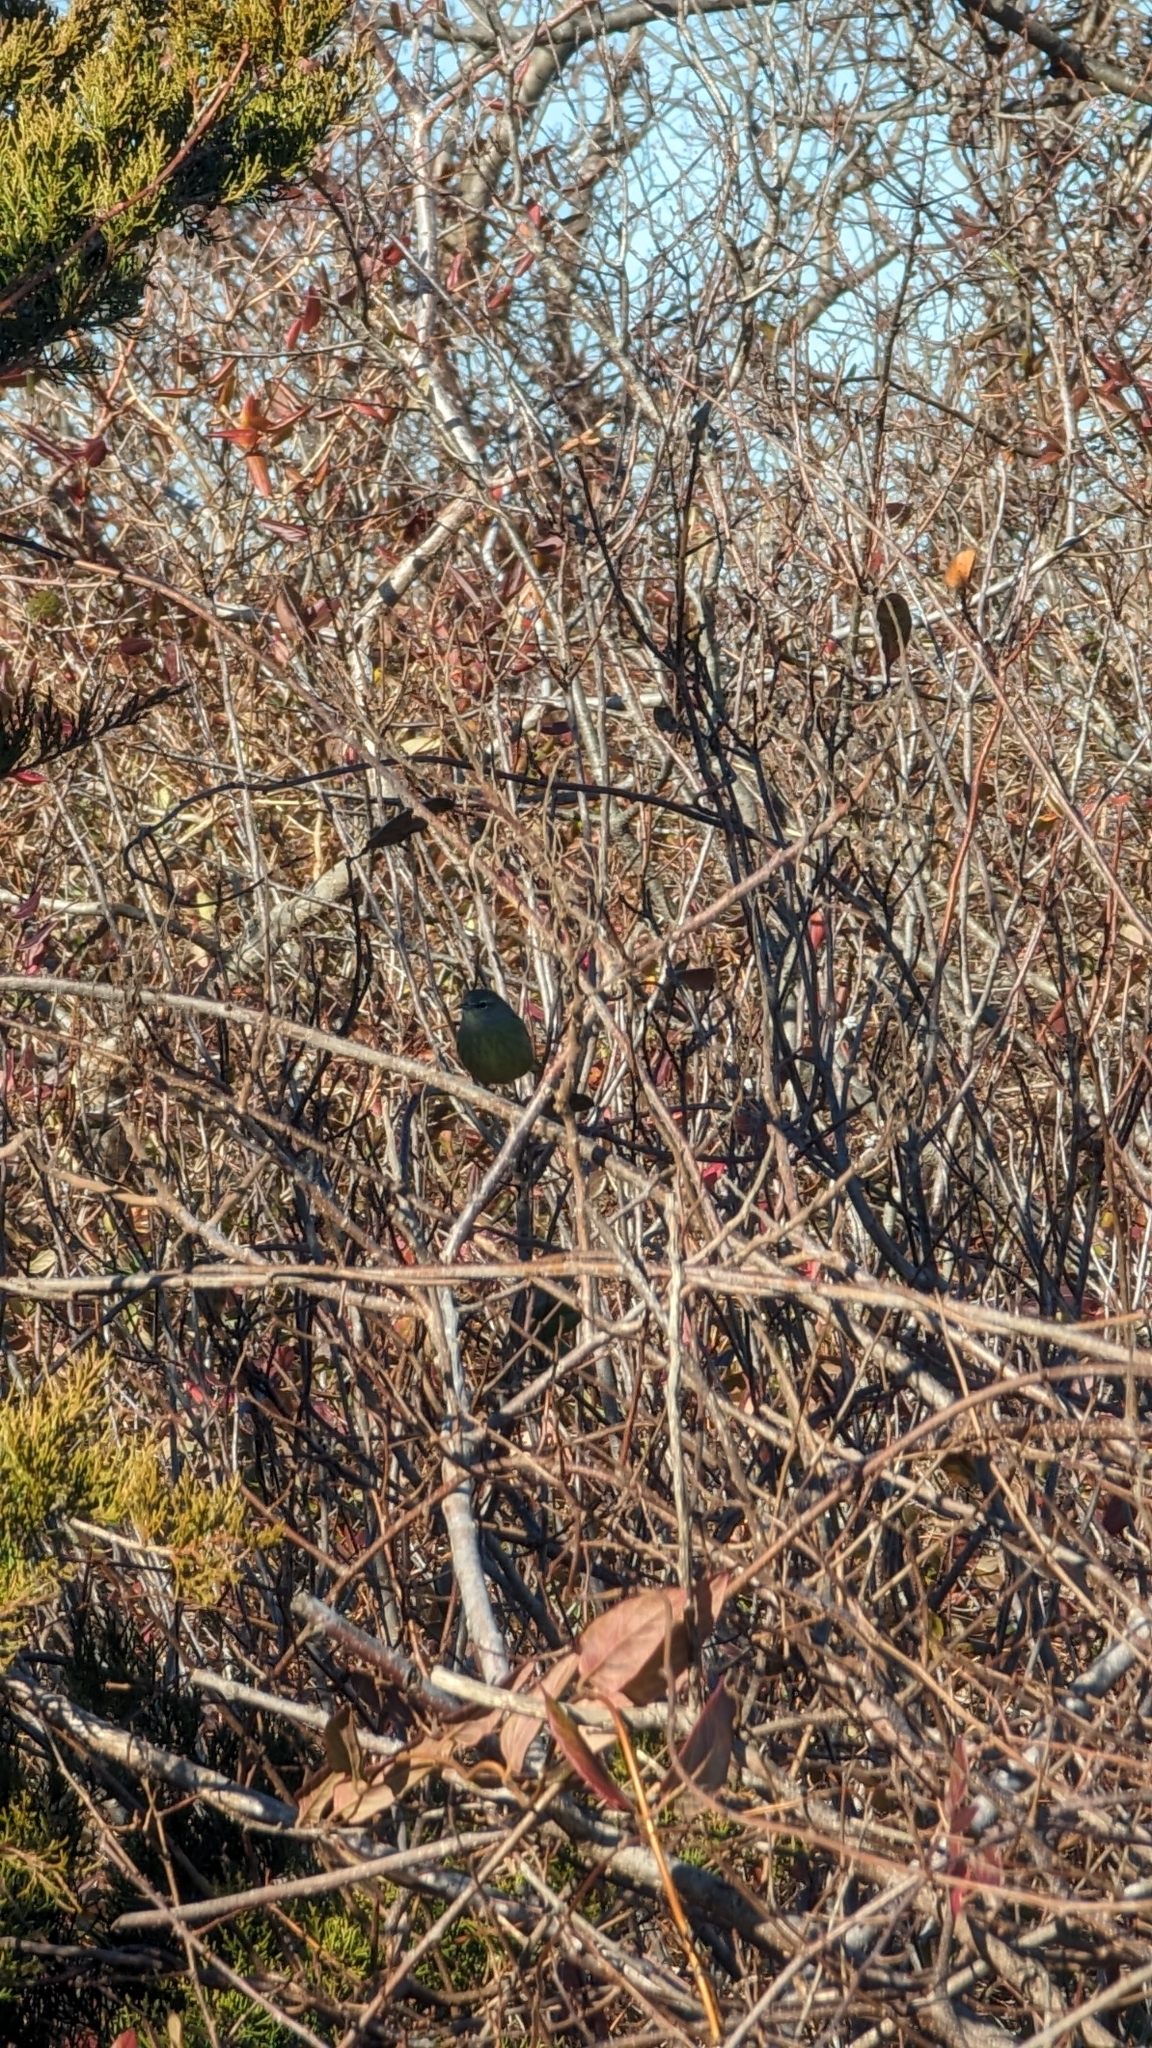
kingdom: Animalia
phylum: Chordata
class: Aves
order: Passeriformes
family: Parulidae
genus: Leiothlypis
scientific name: Leiothlypis celata
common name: Orange-crowned warbler
